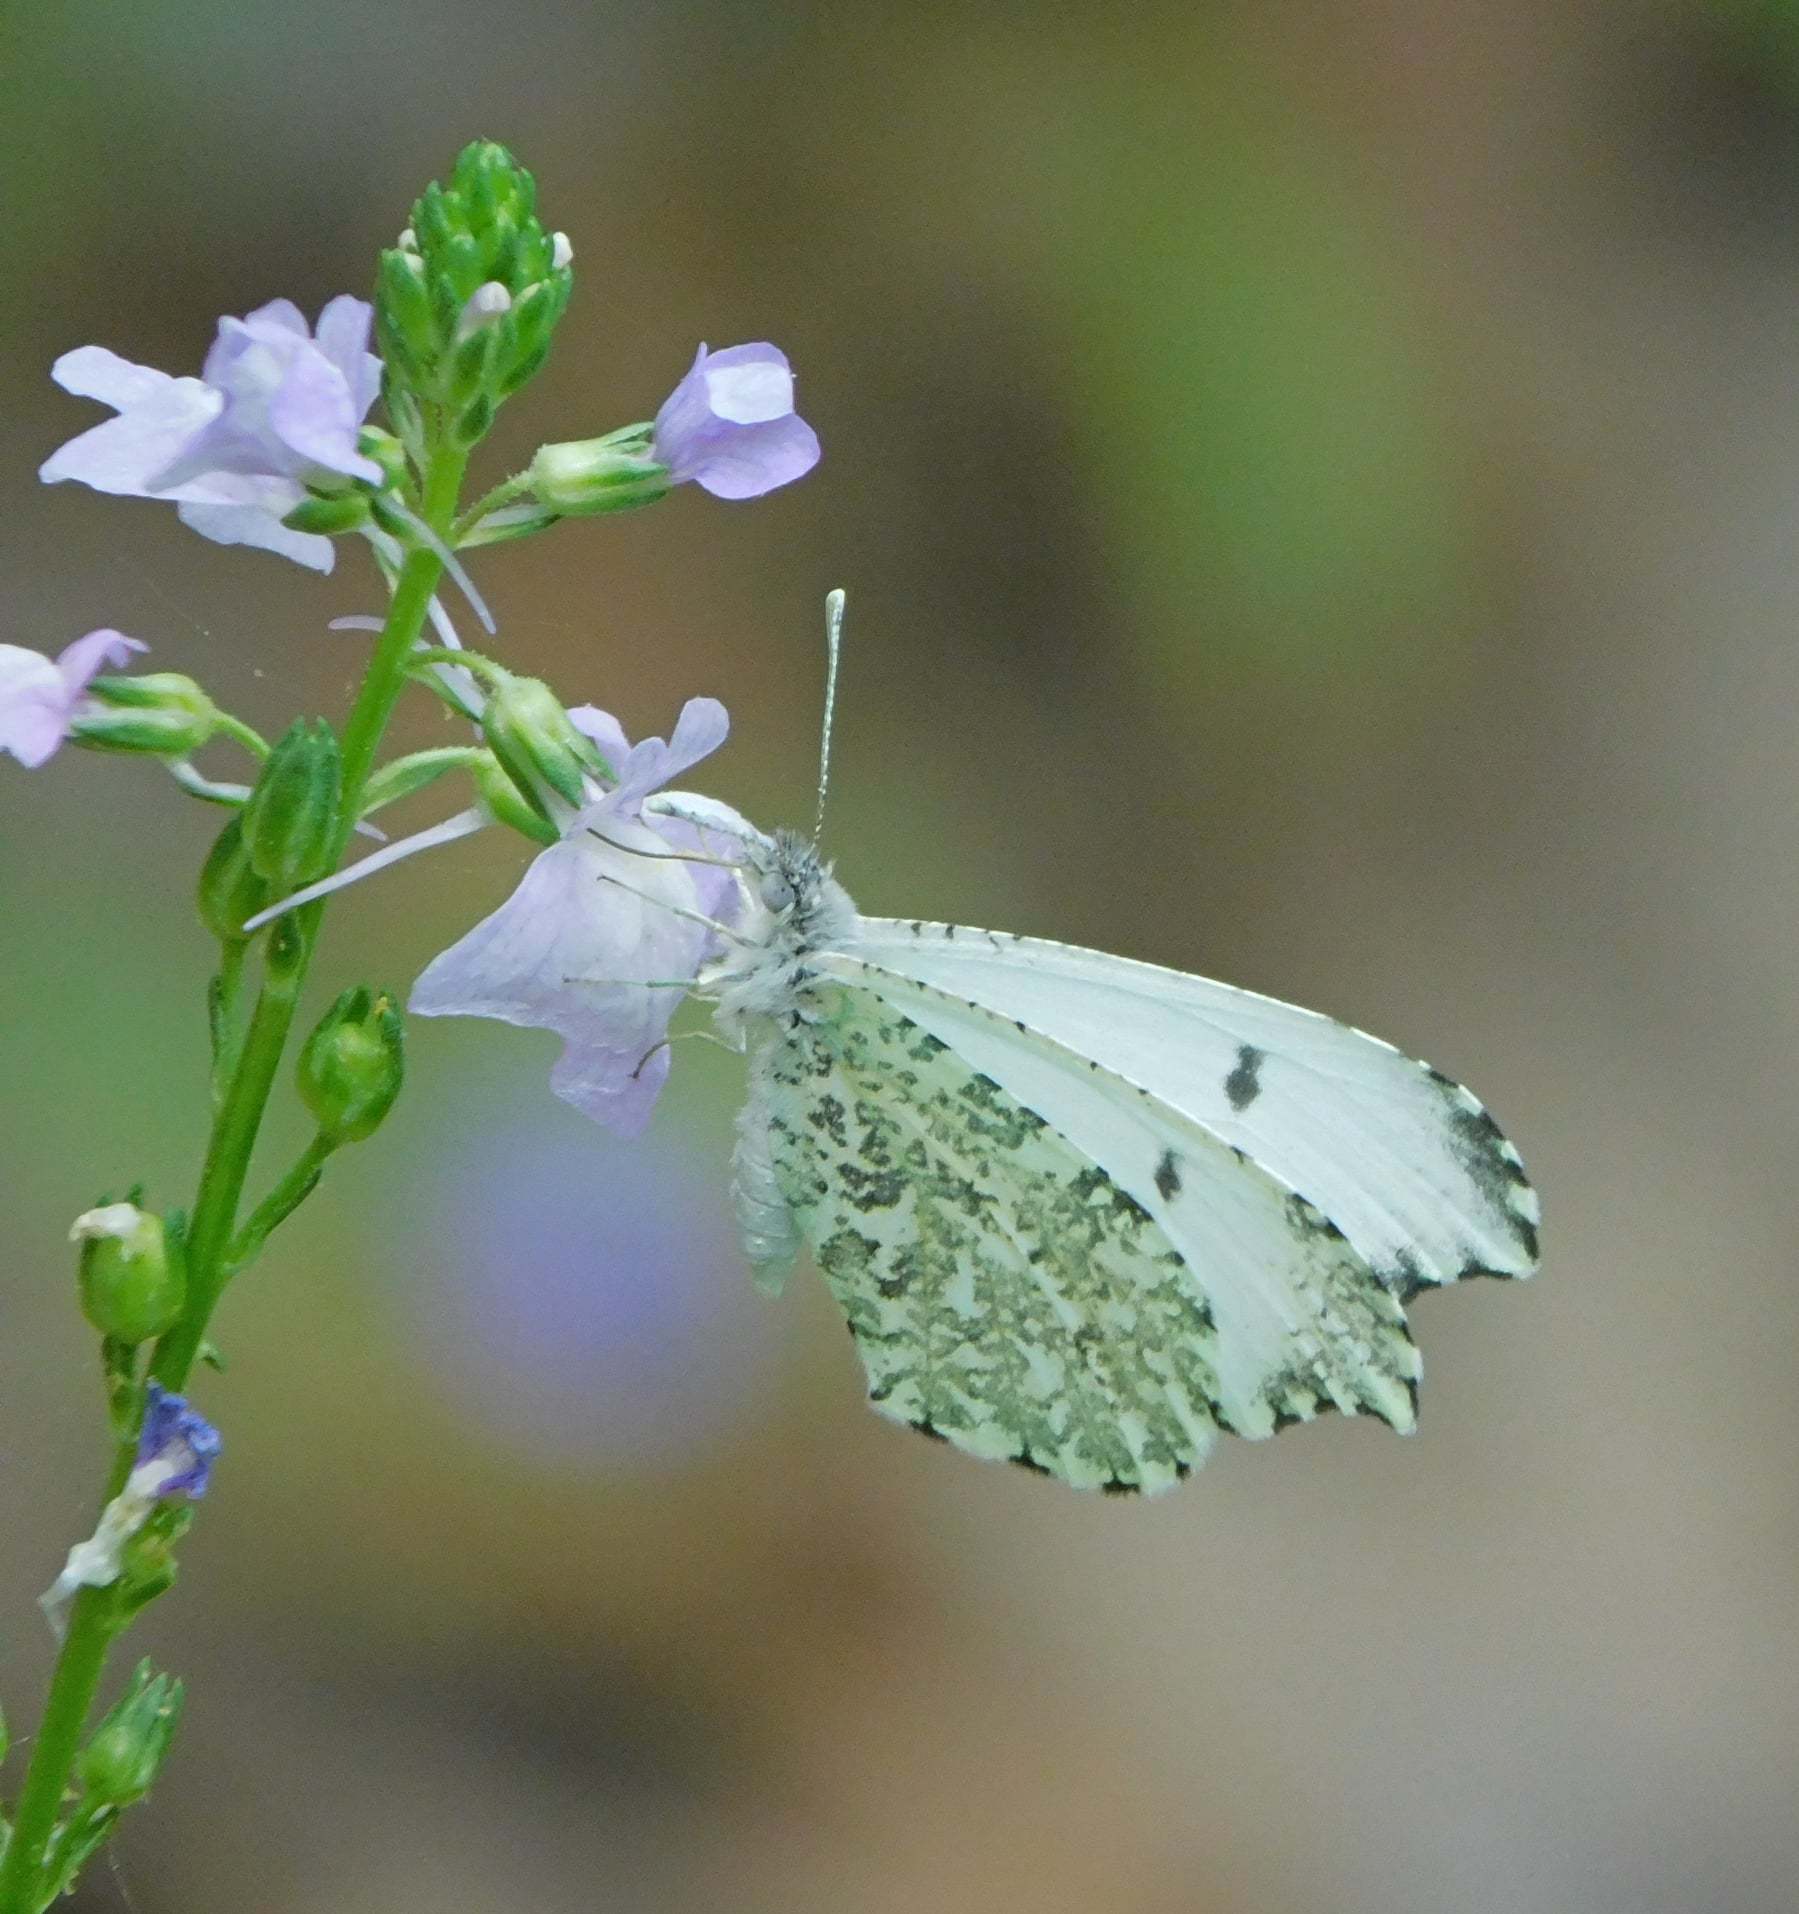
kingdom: Animalia
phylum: Arthropoda
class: Insecta
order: Lepidoptera
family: Pieridae
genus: Anthocharis
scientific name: Anthocharis midea
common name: Falcate orangetip
